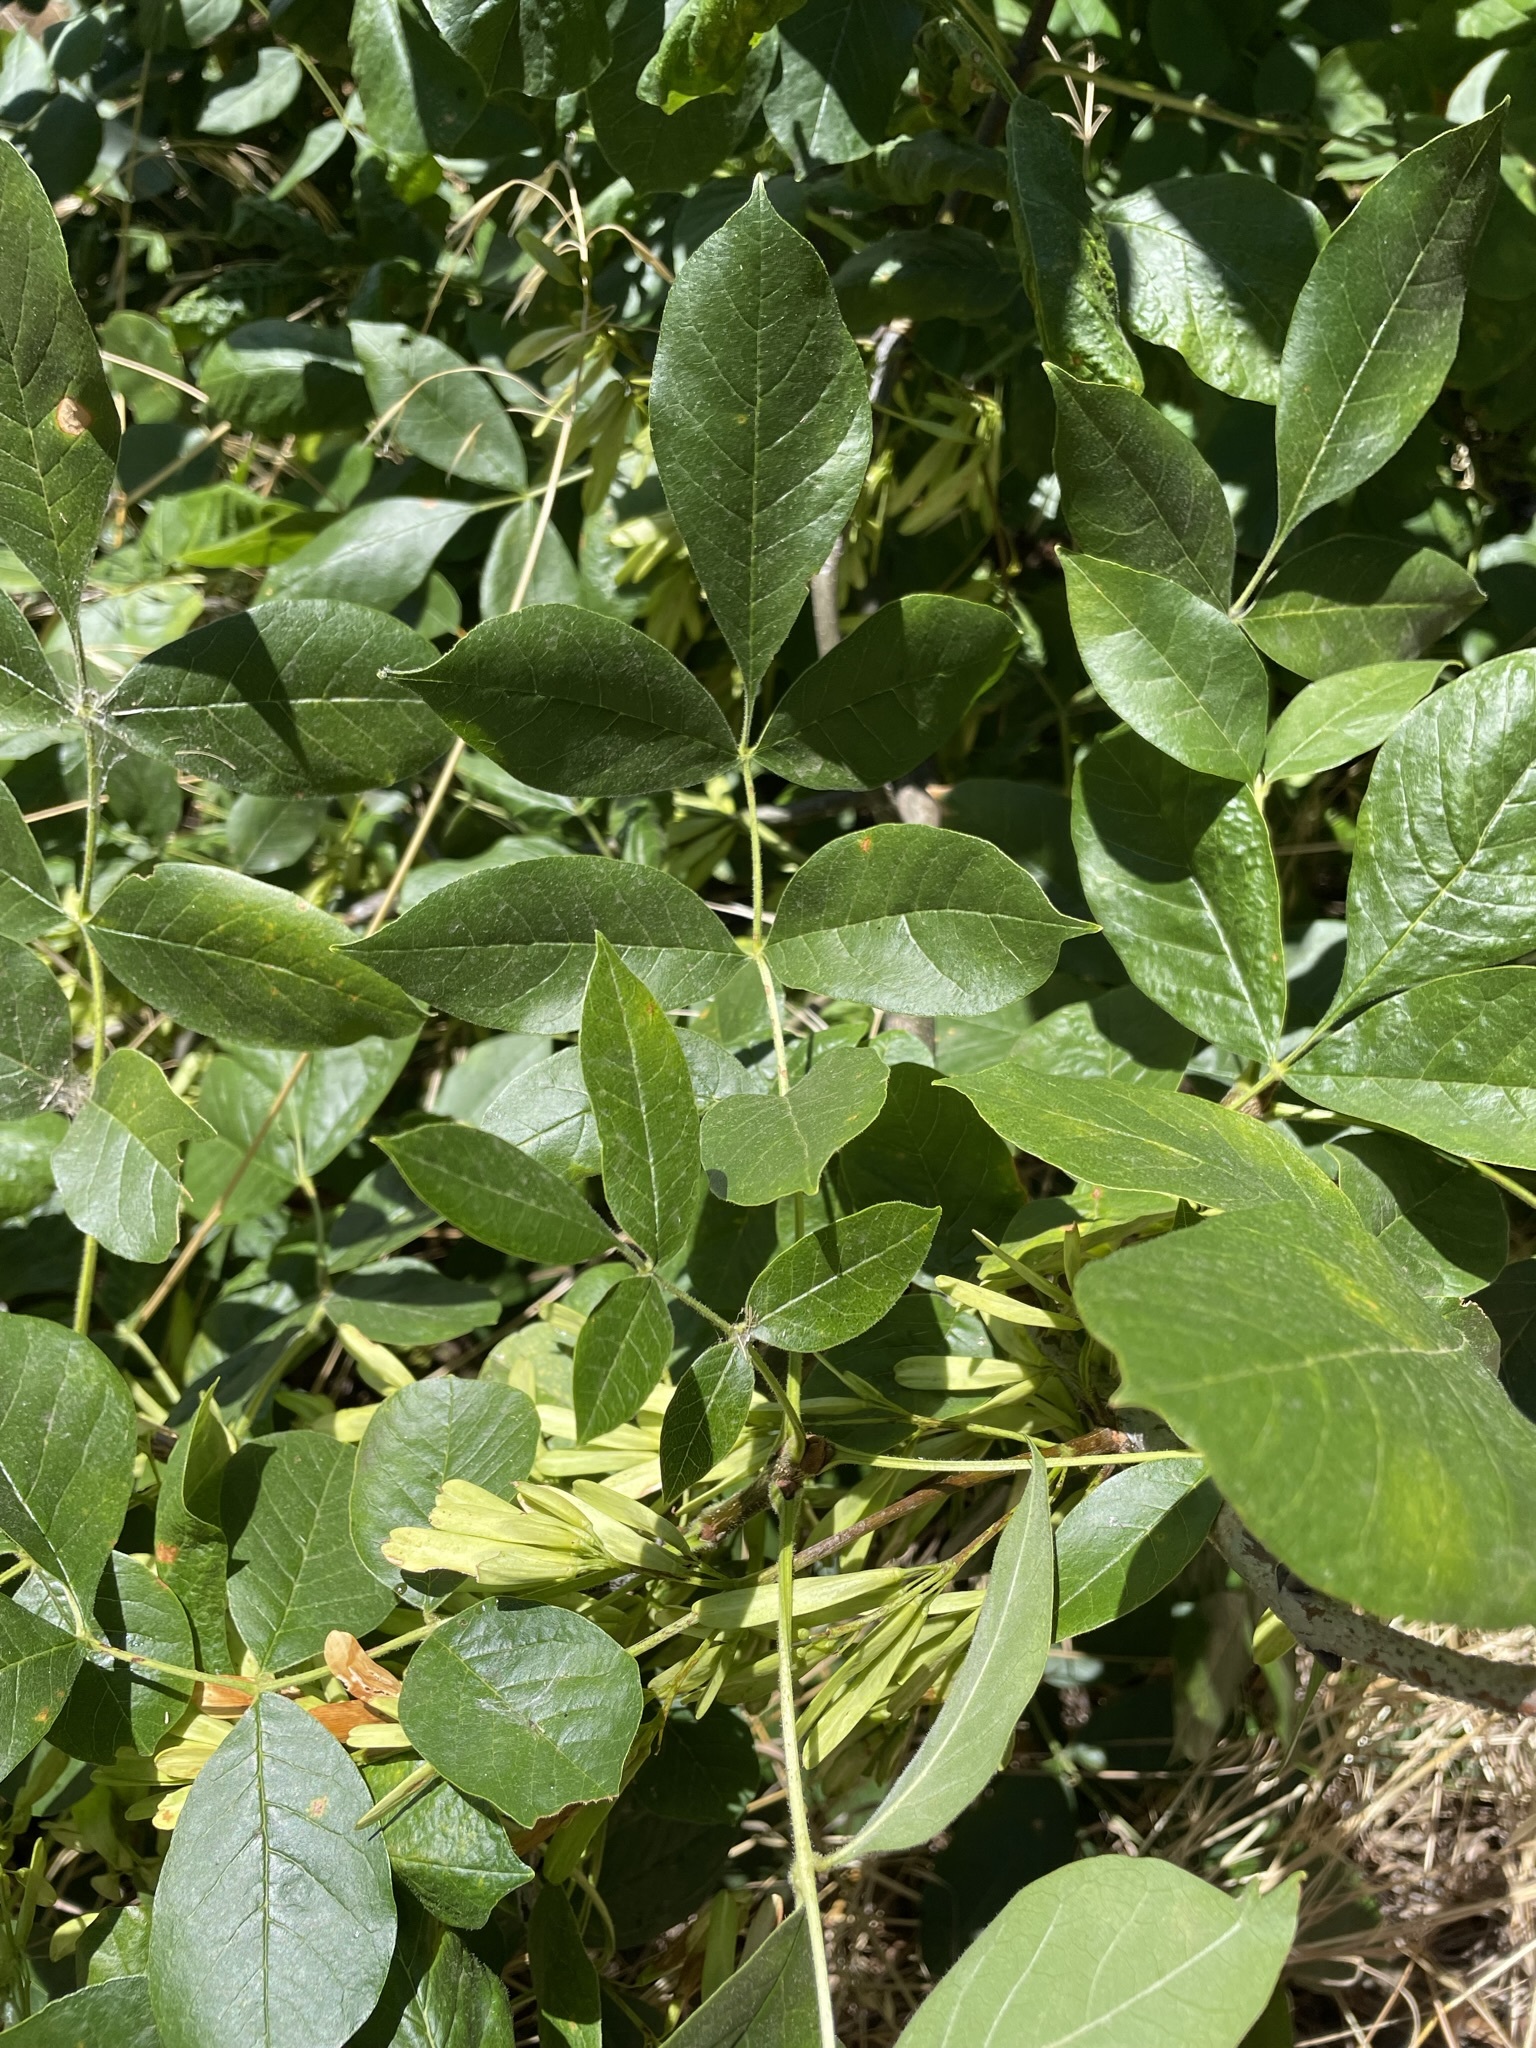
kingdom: Plantae
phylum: Tracheophyta
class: Magnoliopsida
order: Lamiales
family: Oleaceae
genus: Fraxinus
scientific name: Fraxinus latifolia
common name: Oregon ash
